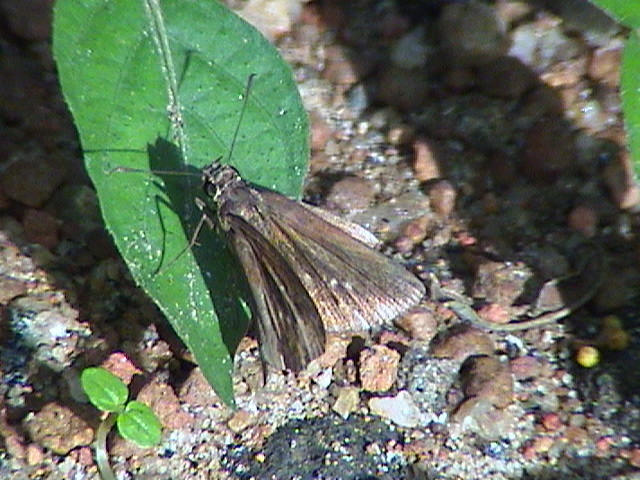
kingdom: Animalia
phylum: Arthropoda
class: Insecta
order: Lepidoptera
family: Hesperiidae
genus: Iambrix
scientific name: Iambrix salsala
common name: Chestnut bob
